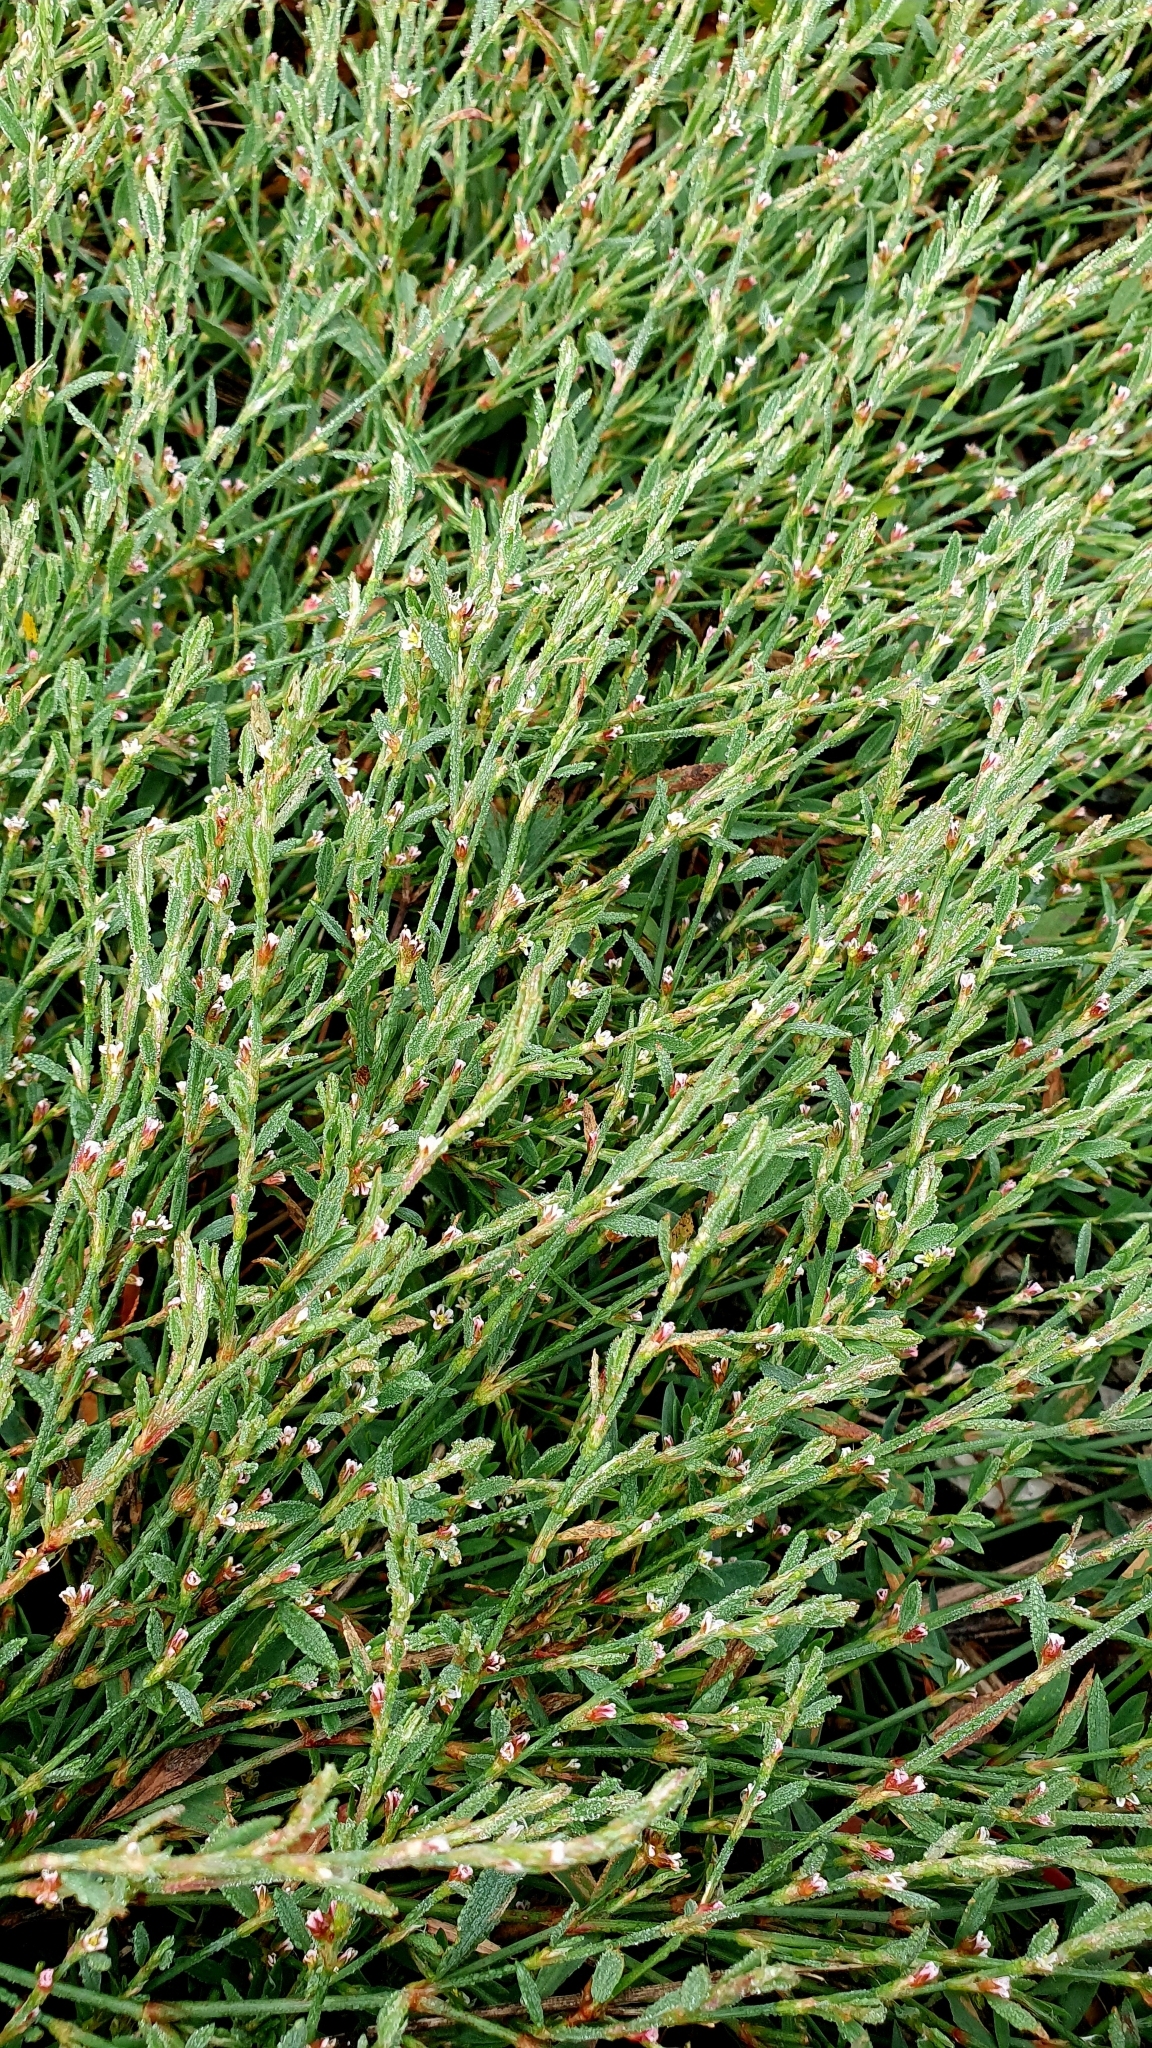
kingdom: Plantae
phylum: Tracheophyta
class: Magnoliopsida
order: Caryophyllales
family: Polygonaceae
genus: Polygonum
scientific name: Polygonum aviculare
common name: Prostrate knotweed
